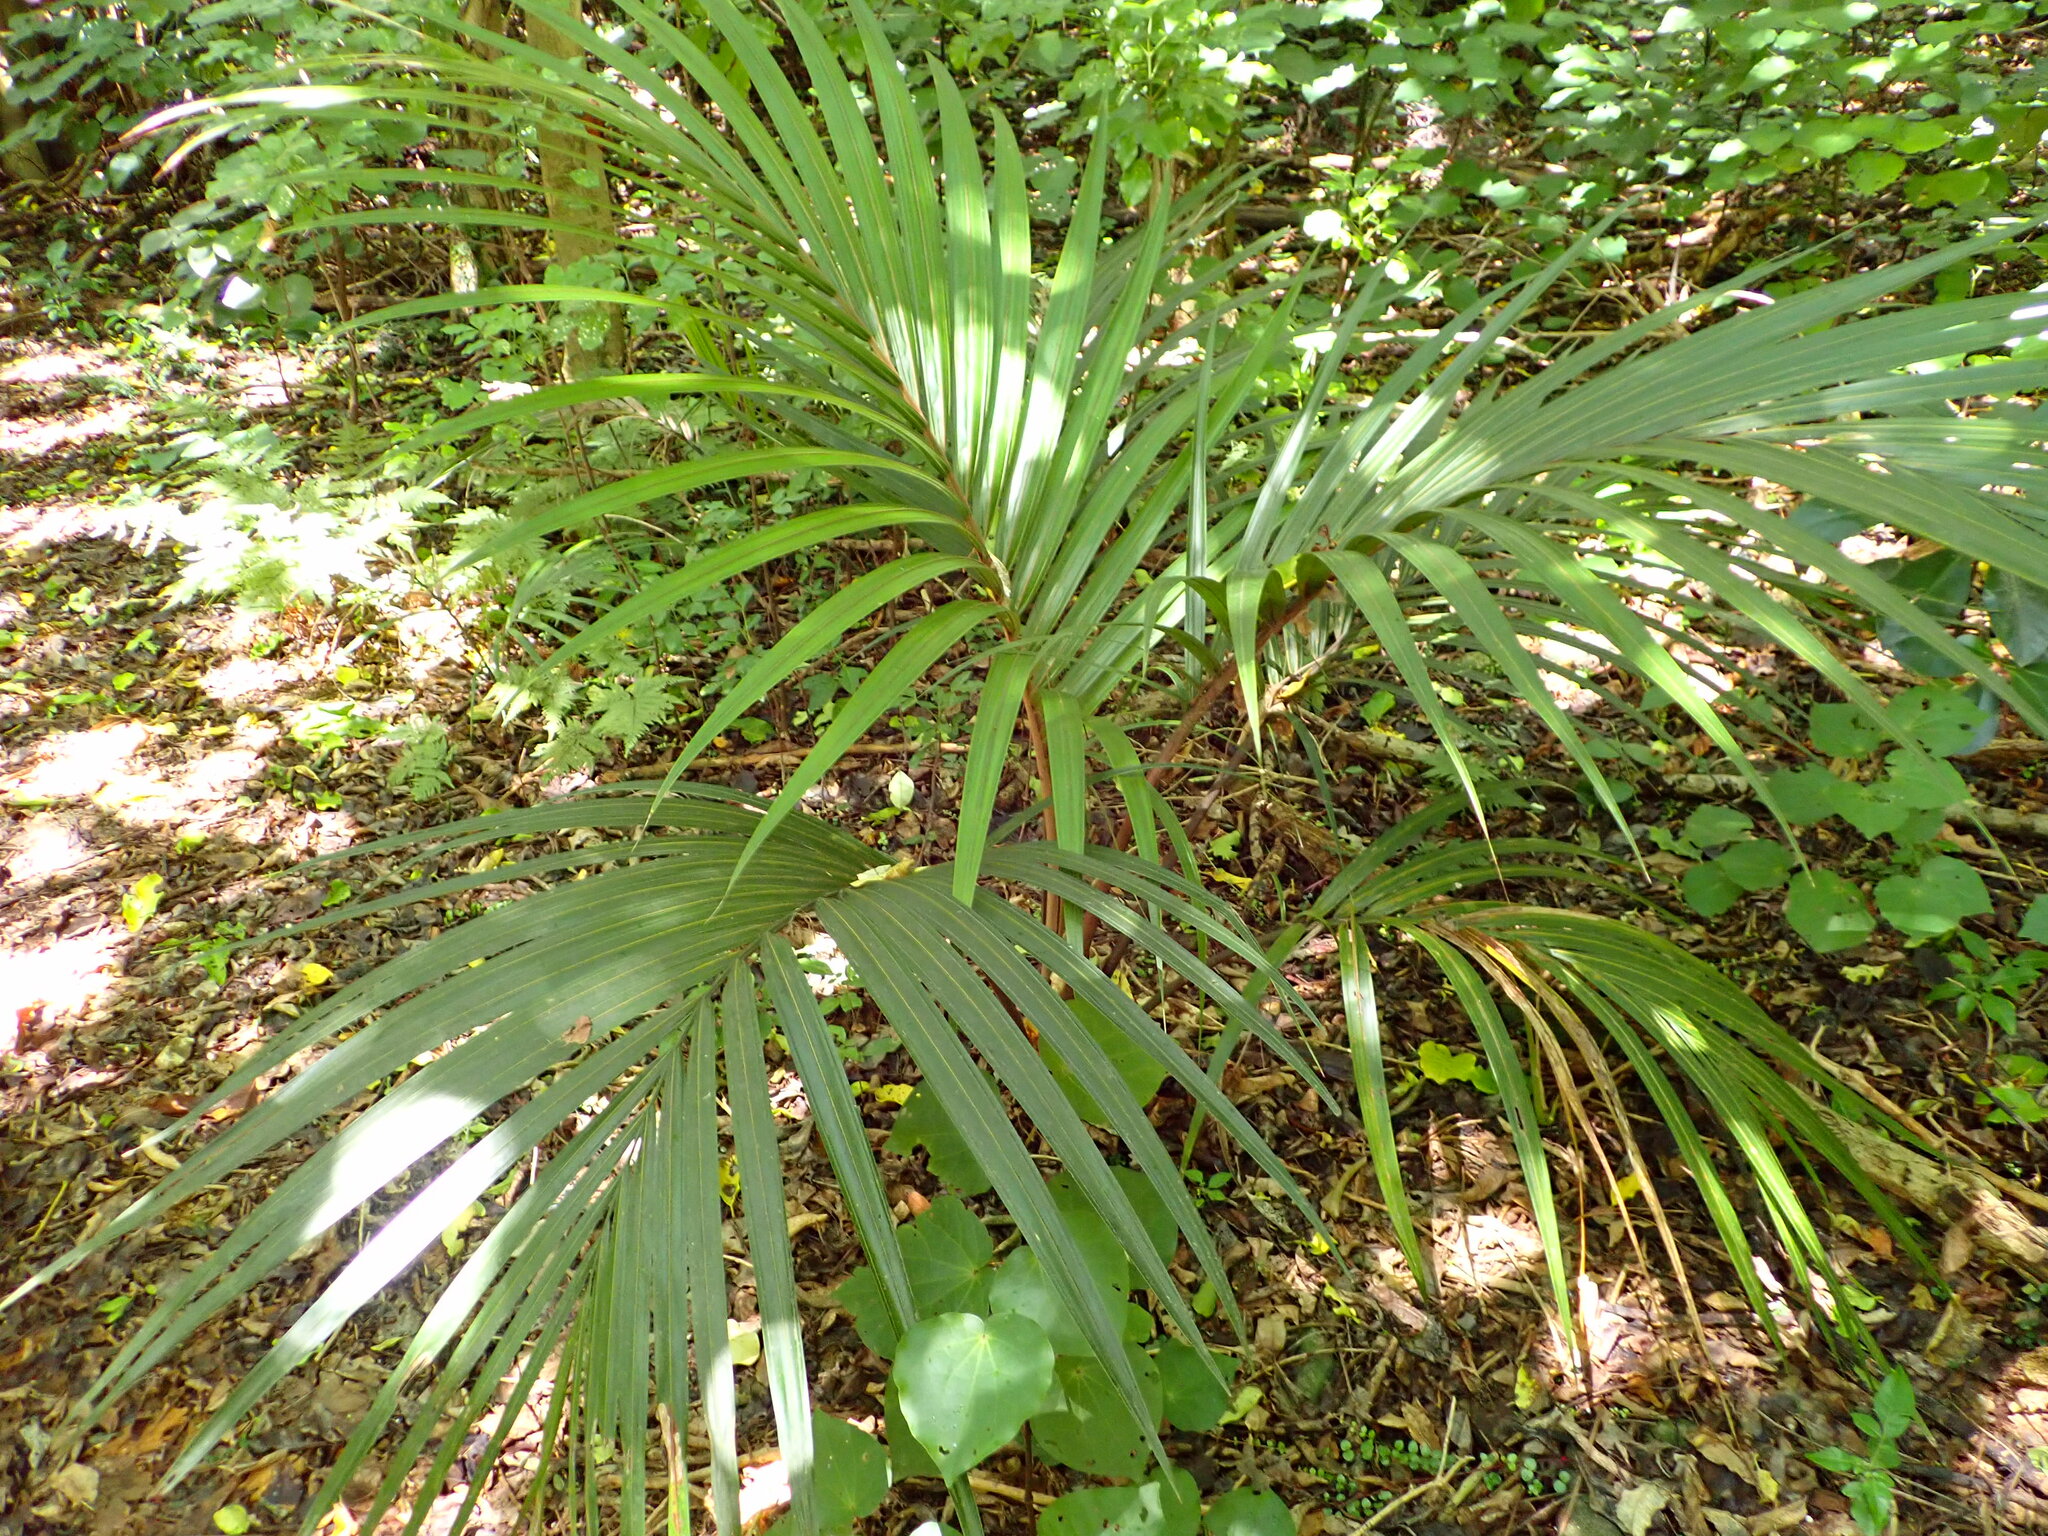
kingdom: Plantae
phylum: Tracheophyta
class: Liliopsida
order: Arecales
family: Arecaceae
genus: Rhopalostylis
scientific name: Rhopalostylis sapida
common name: Feather-duster palm
